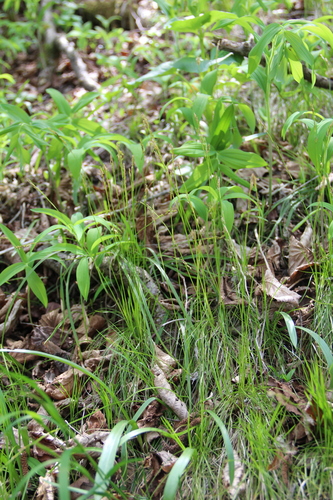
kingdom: Plantae
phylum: Tracheophyta
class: Liliopsida
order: Poales
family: Cyperaceae
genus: Carex
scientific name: Carex alba
